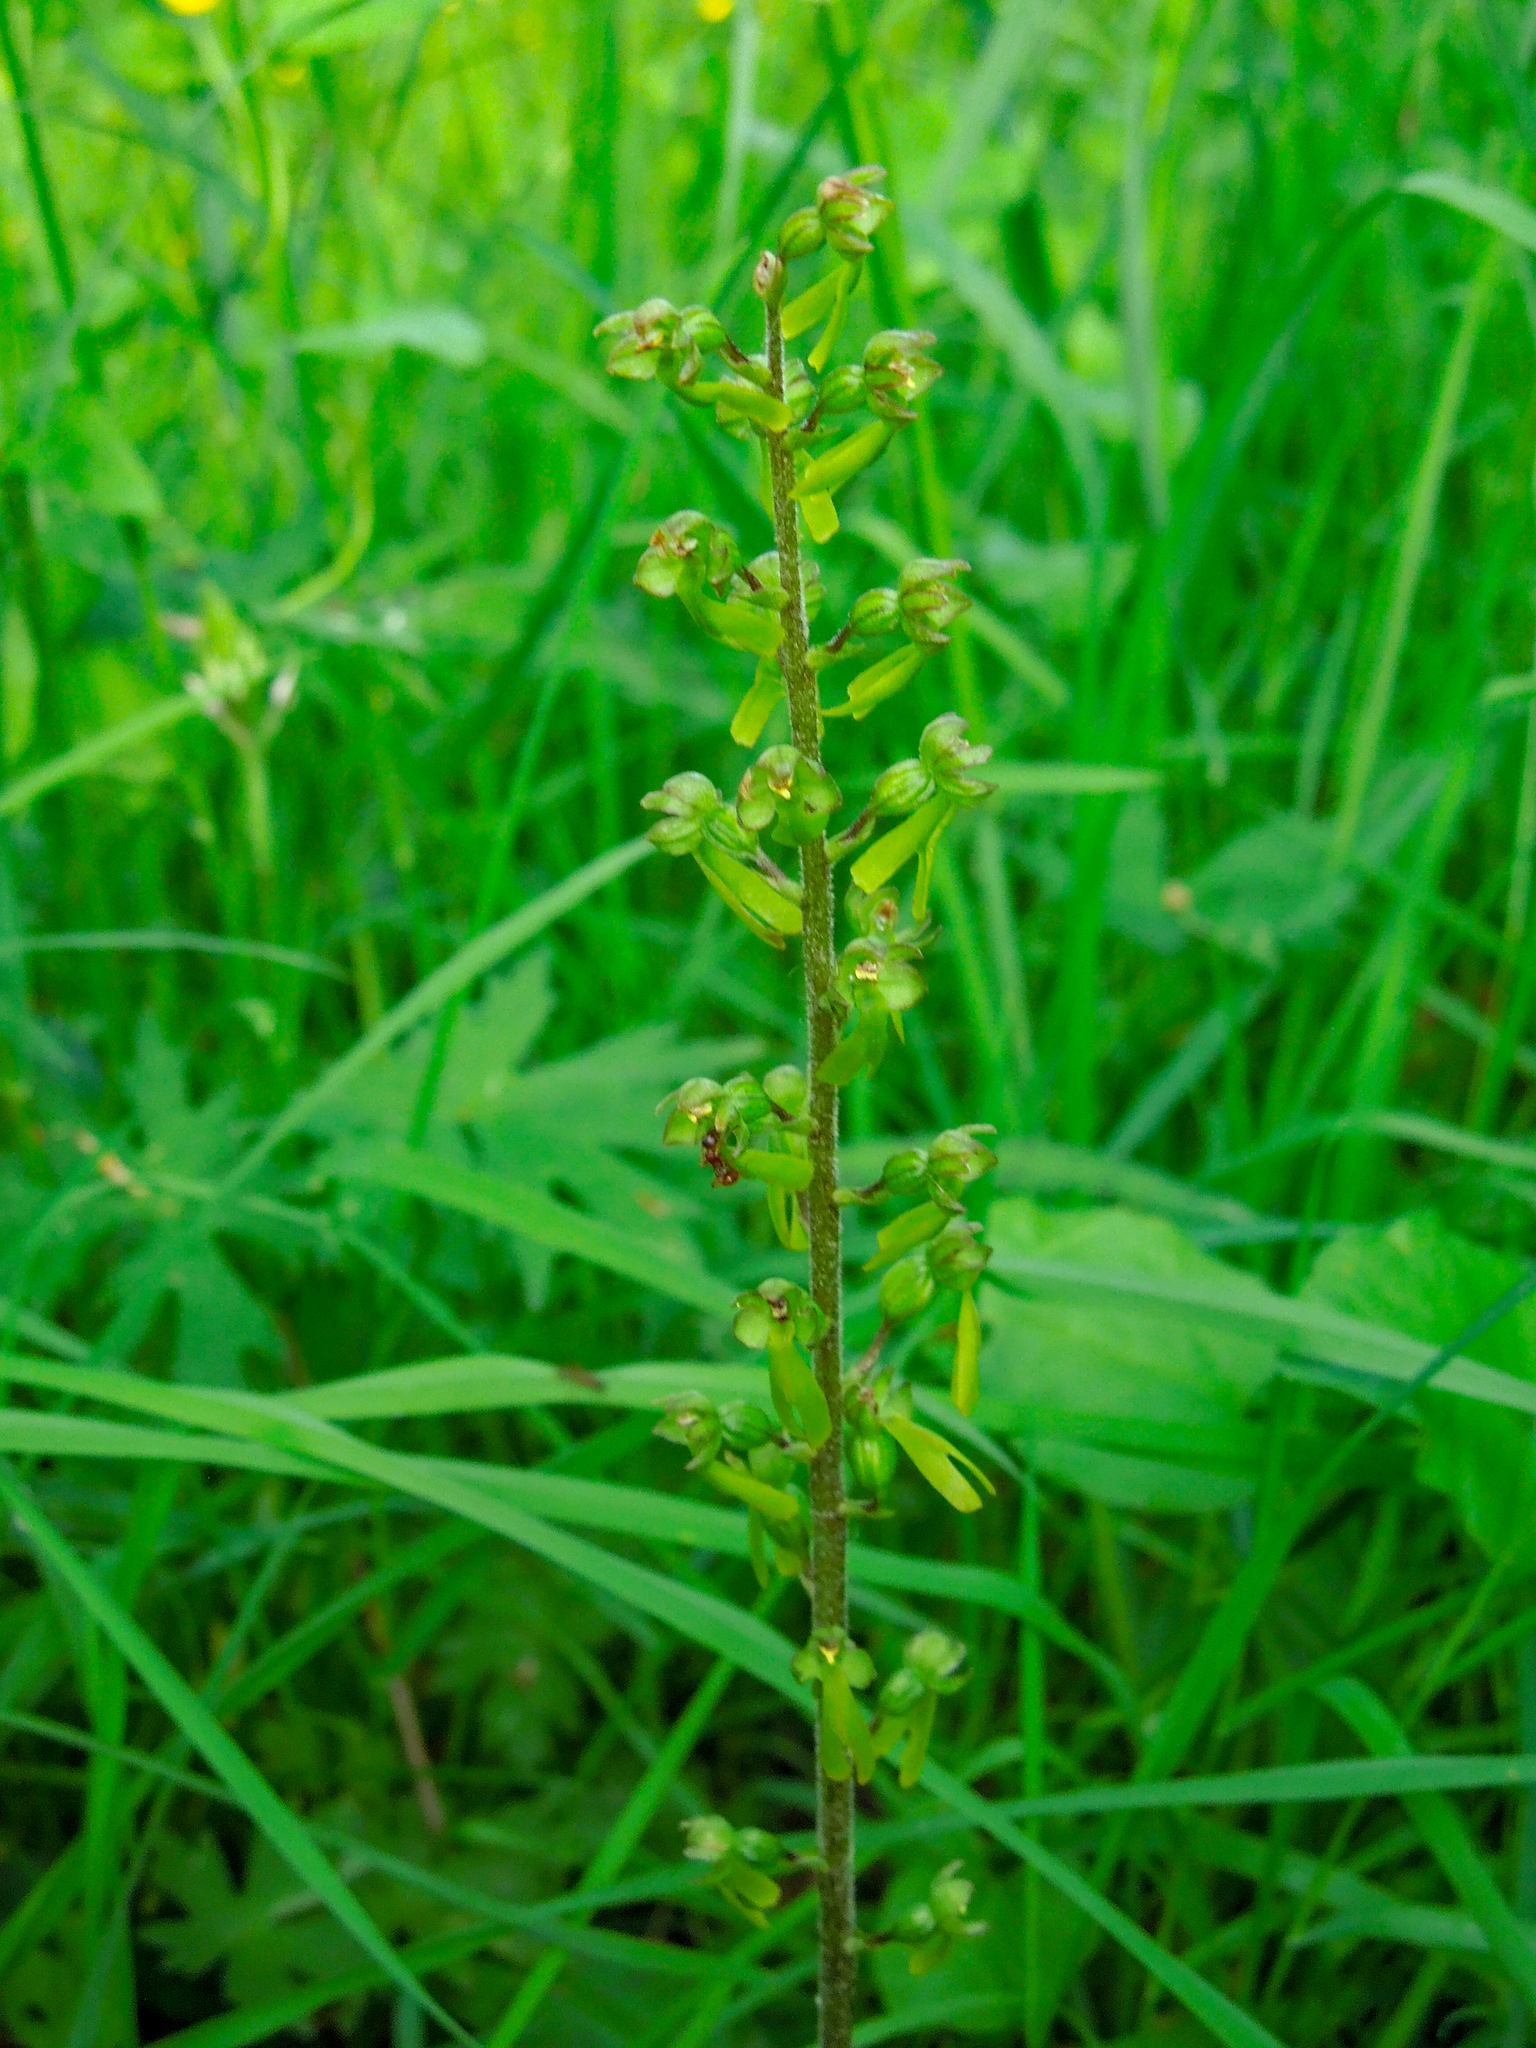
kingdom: Plantae
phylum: Tracheophyta
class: Liliopsida
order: Asparagales
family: Orchidaceae
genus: Neottia
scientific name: Neottia ovata
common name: Common twayblade
